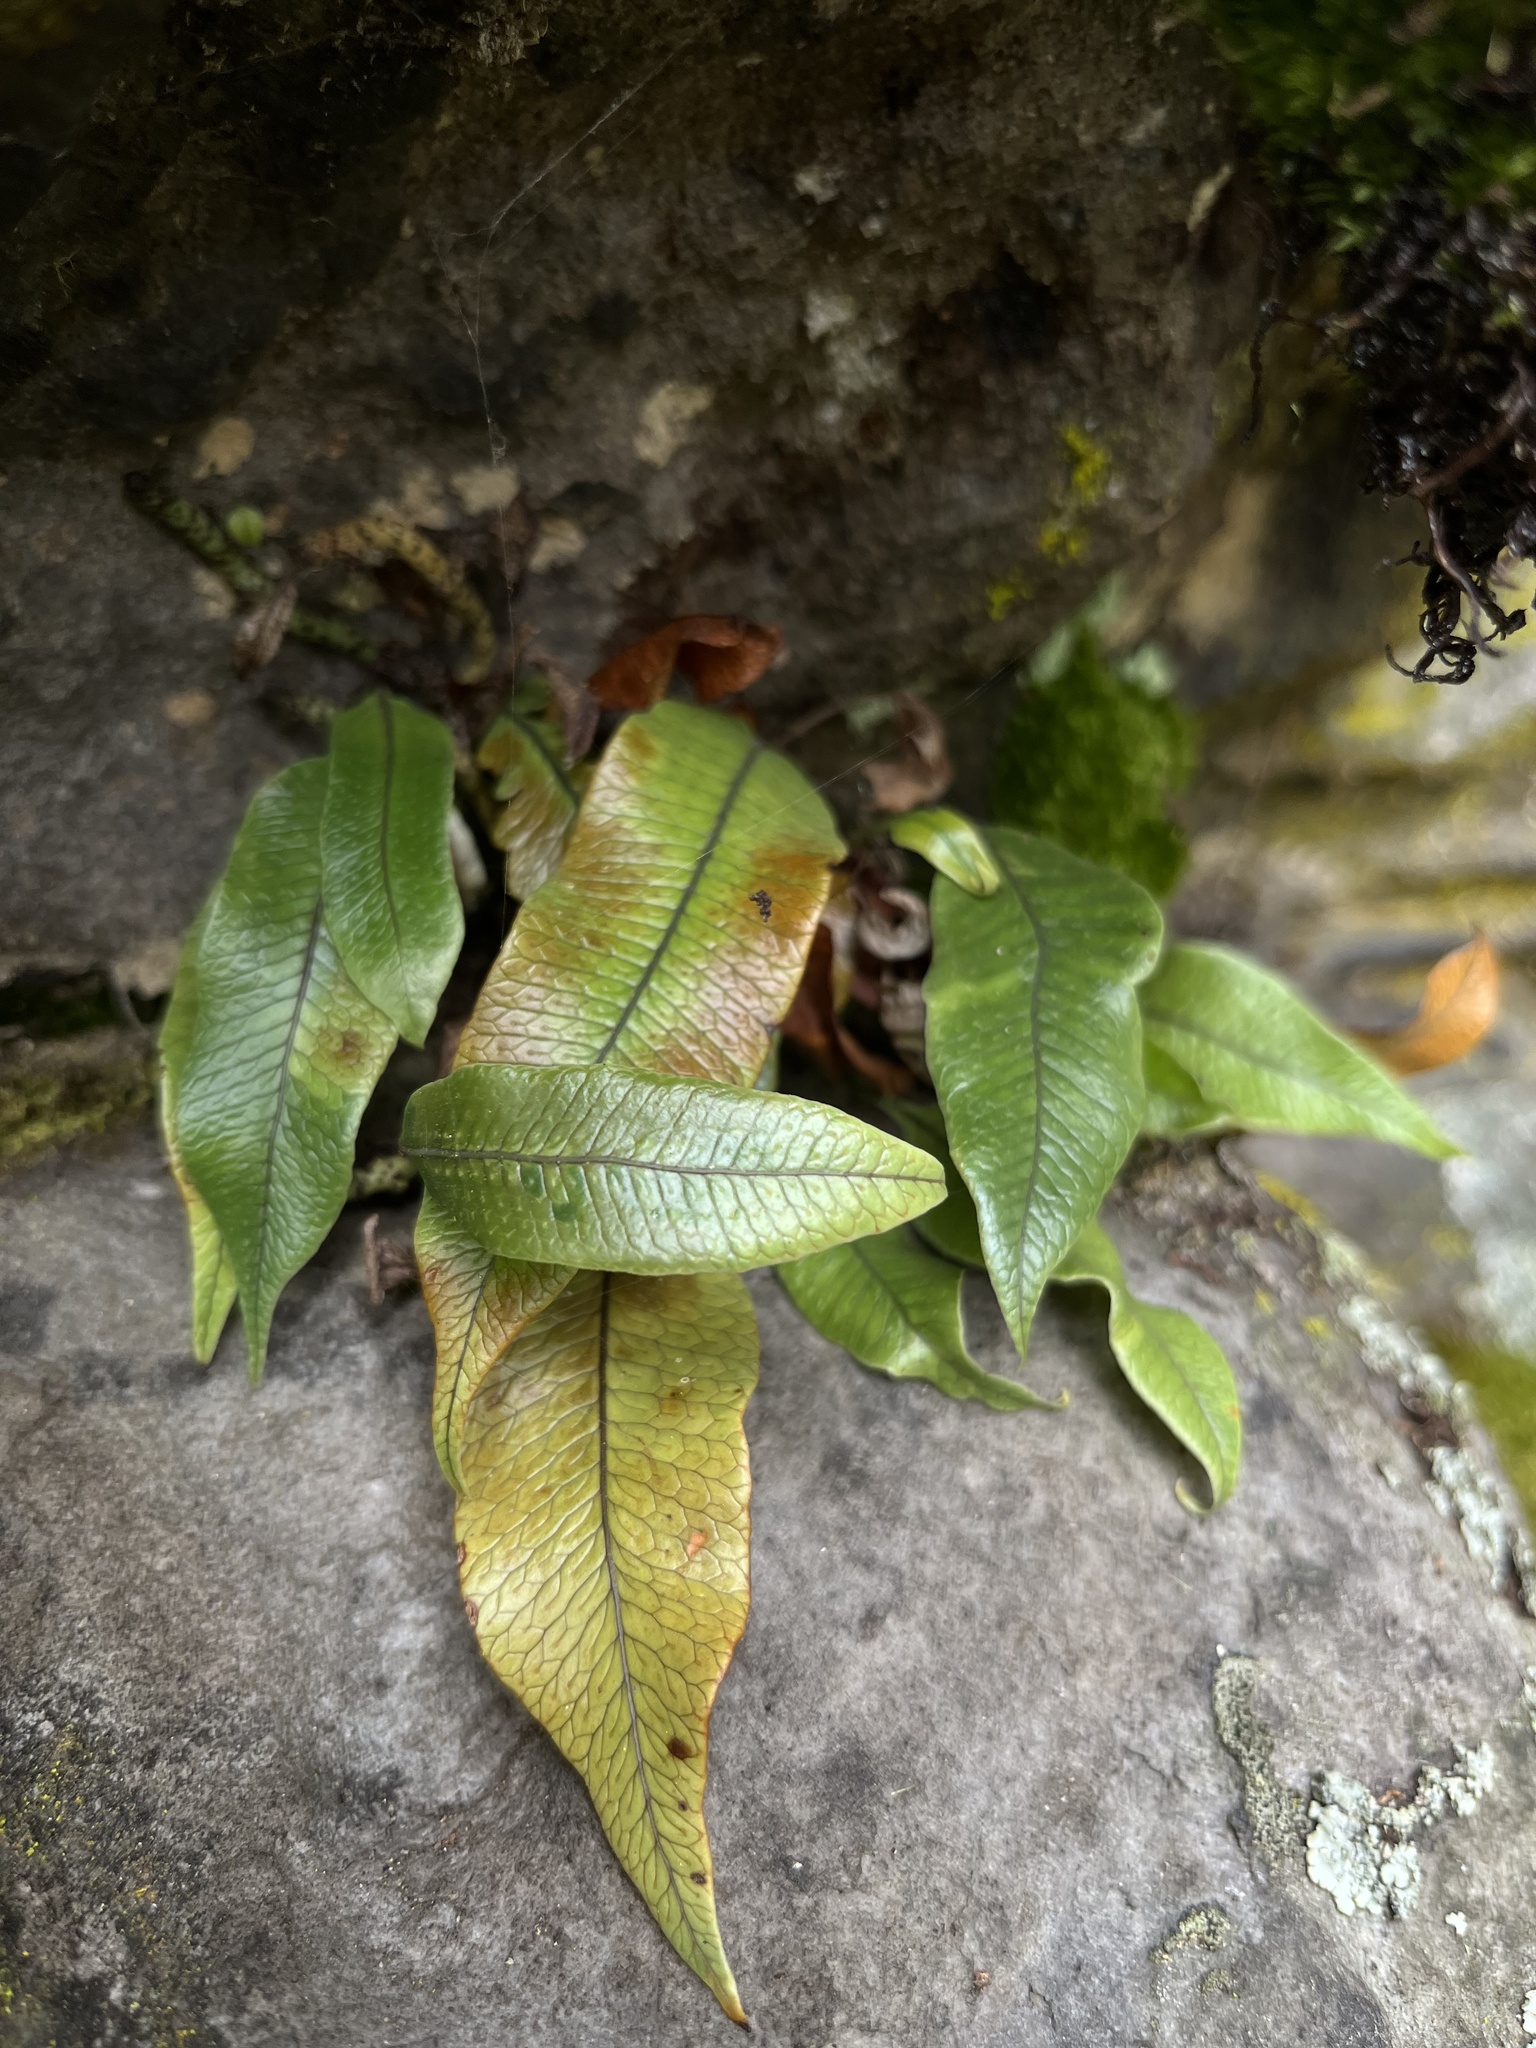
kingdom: Plantae
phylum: Tracheophyta
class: Polypodiopsida
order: Polypodiales
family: Polypodiaceae
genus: Serpocaulon
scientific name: Serpocaulon levigatum
